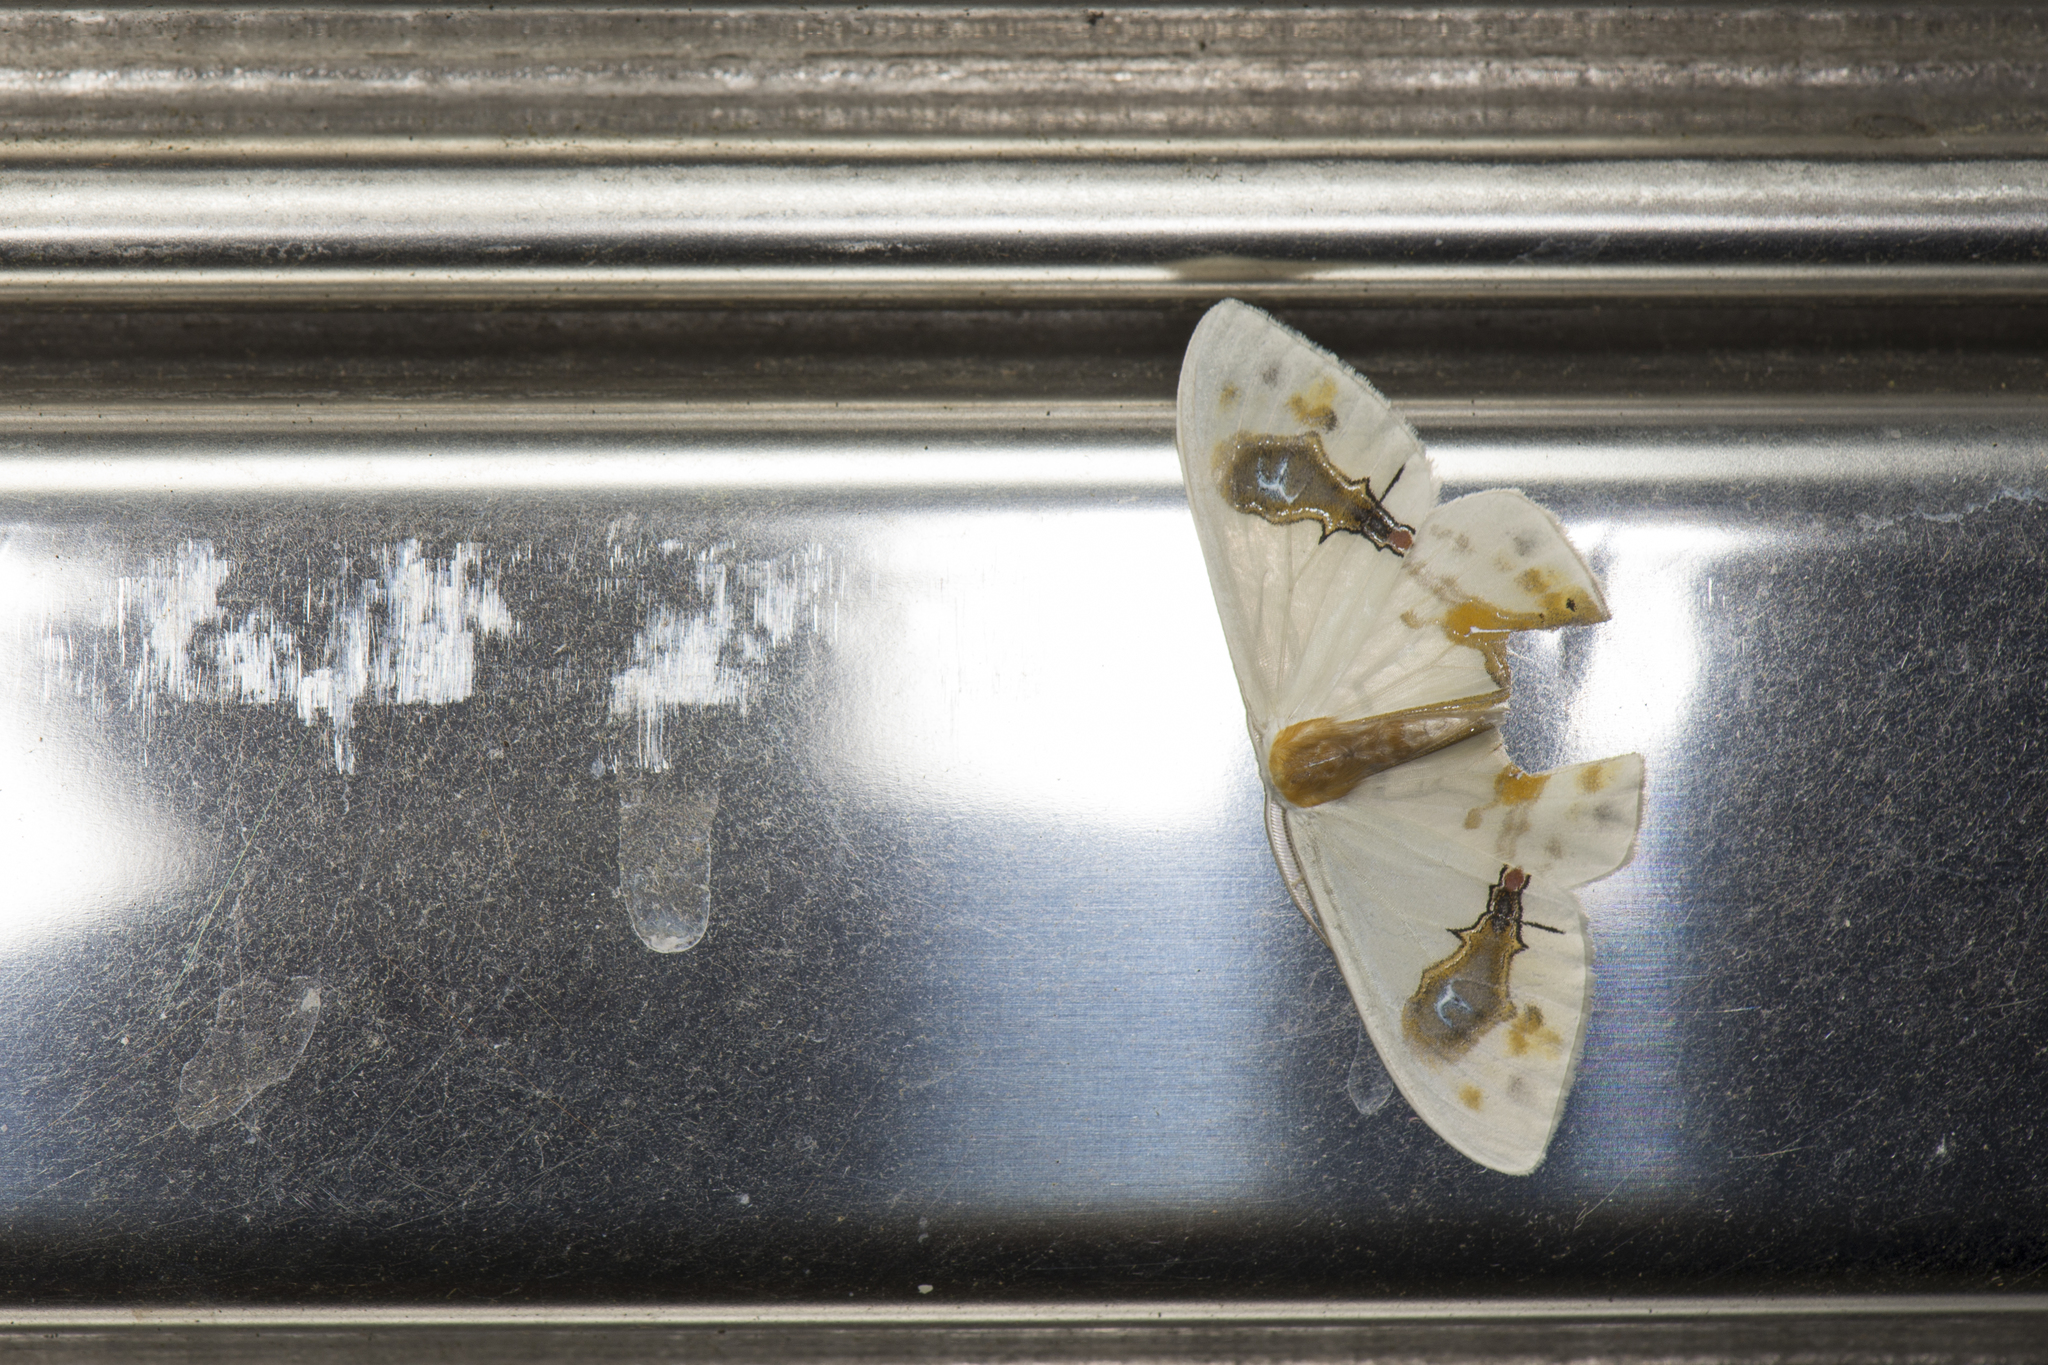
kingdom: Animalia
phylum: Arthropoda
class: Insecta
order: Lepidoptera
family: Drepanidae
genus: Macrocilix
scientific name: Macrocilix maia
